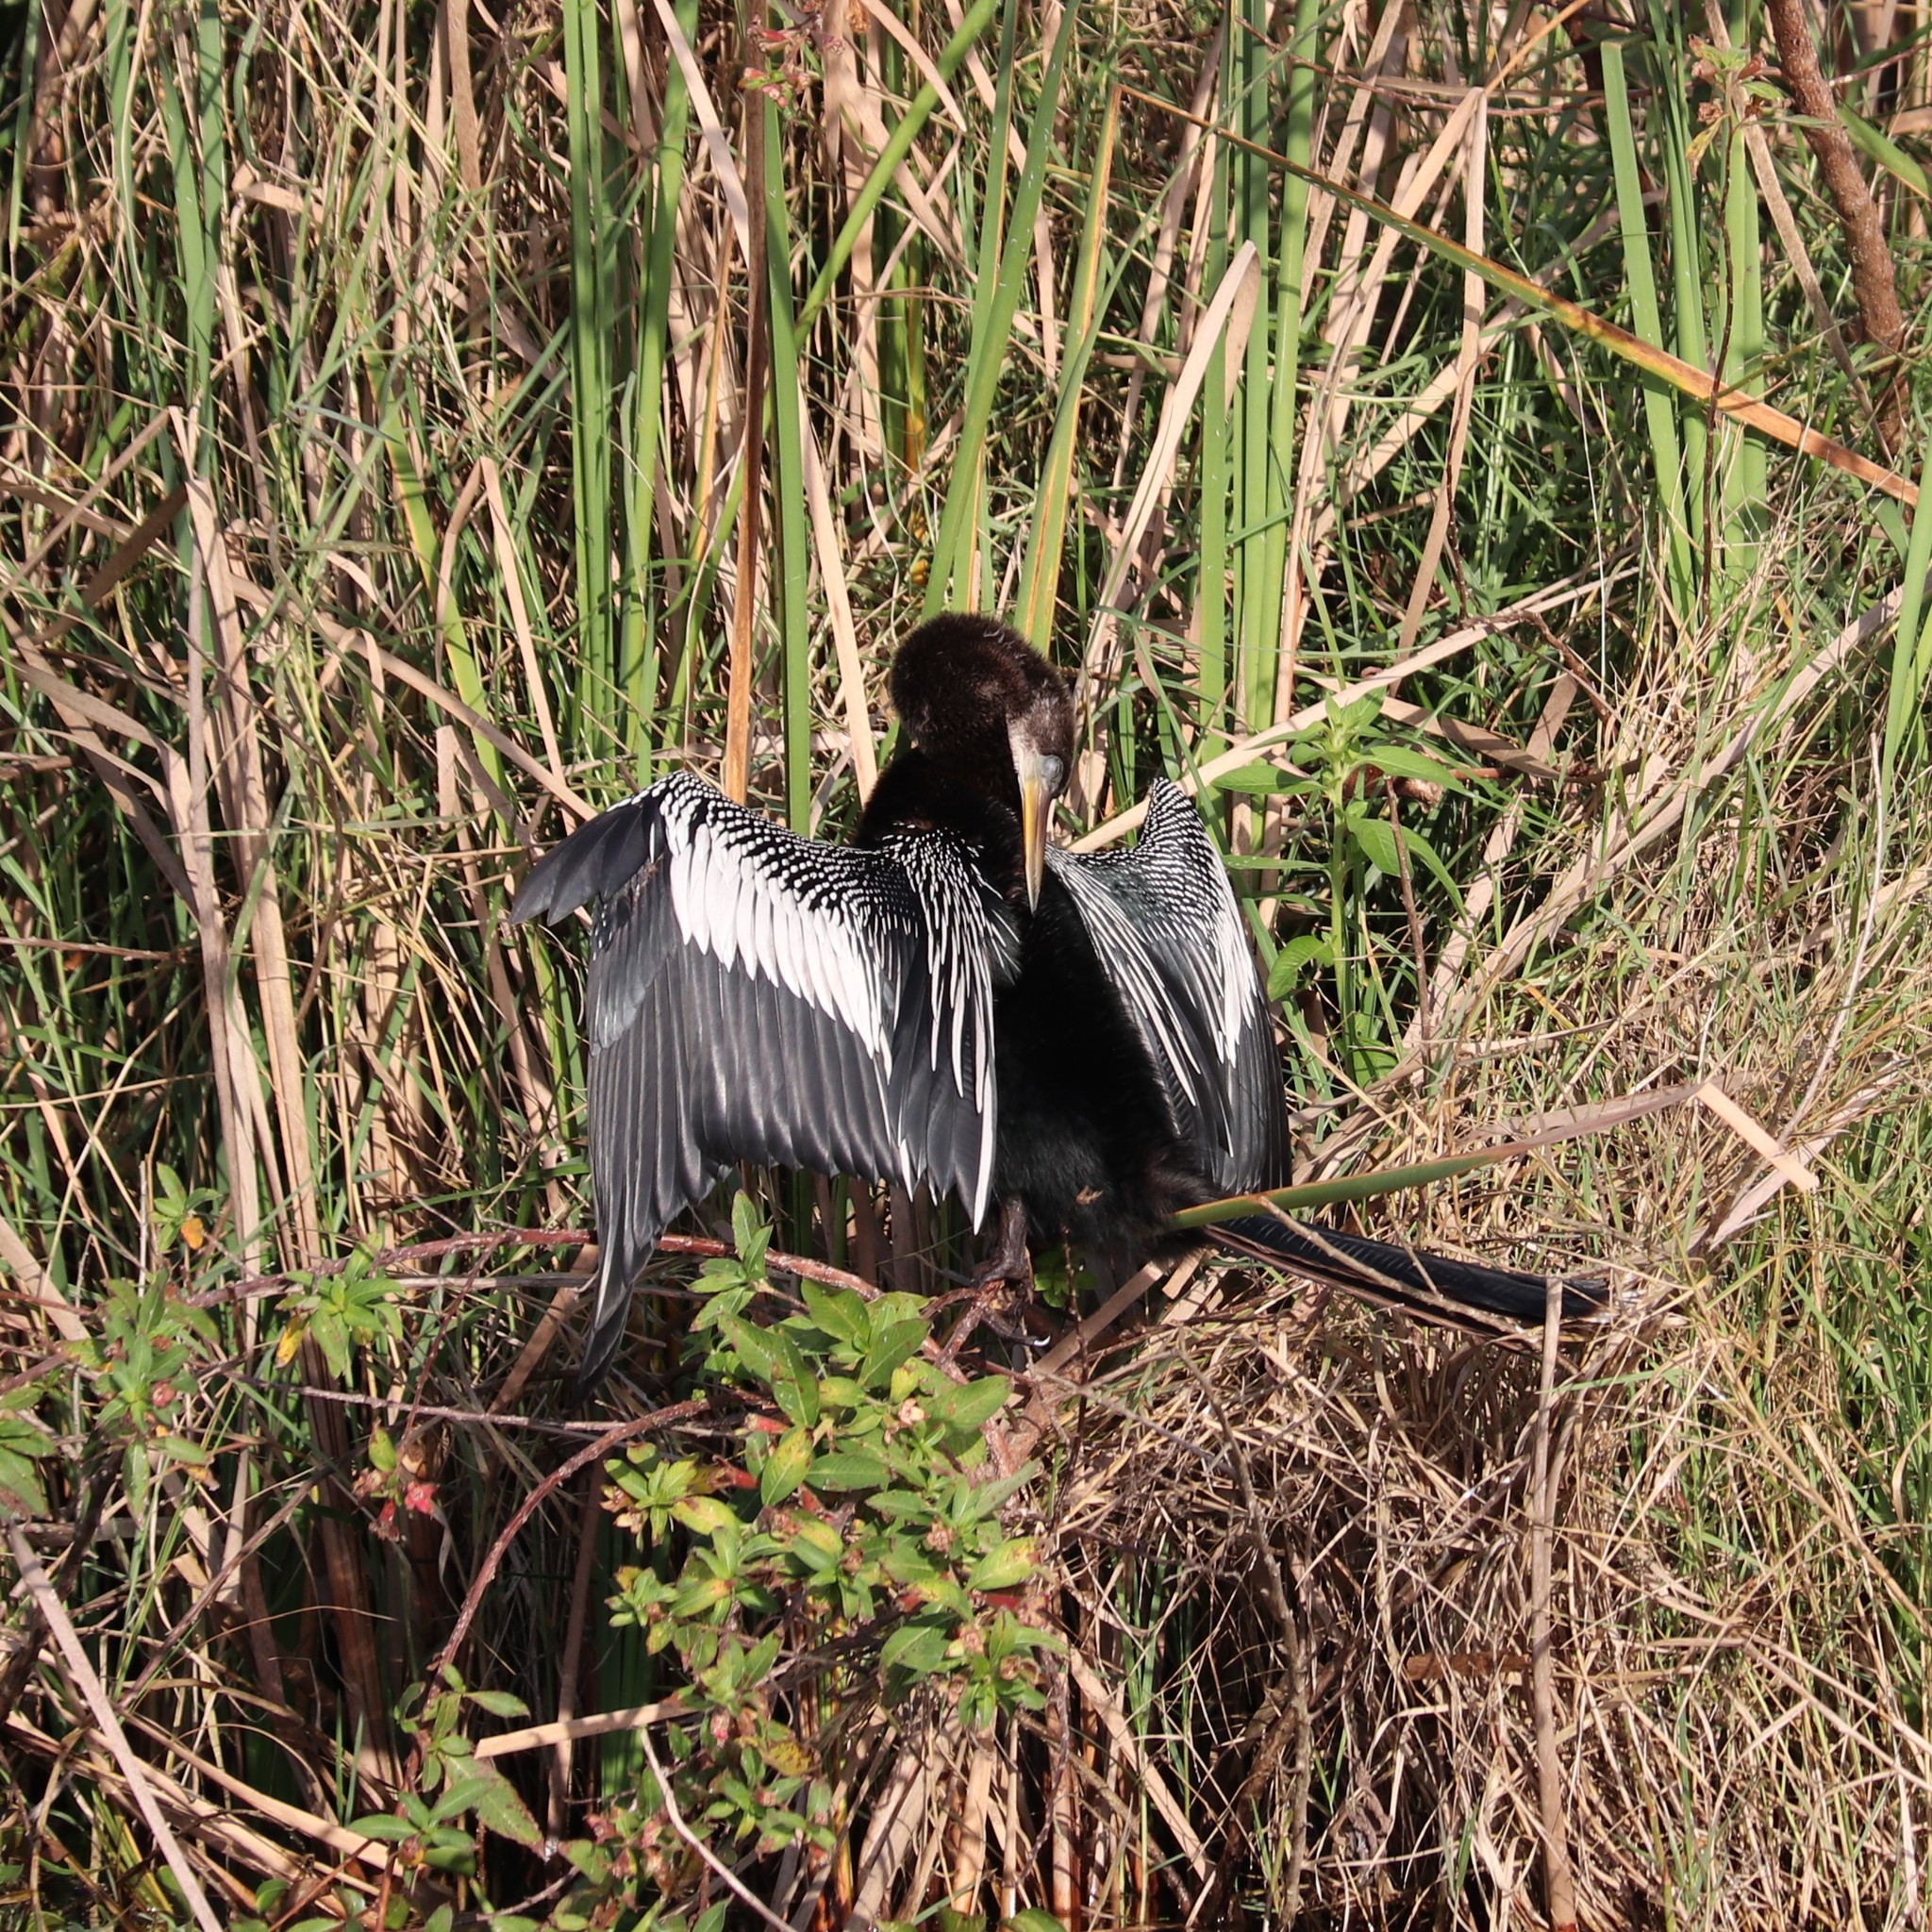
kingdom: Animalia
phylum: Chordata
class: Aves
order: Suliformes
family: Anhingidae
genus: Anhinga
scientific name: Anhinga anhinga
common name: Anhinga
